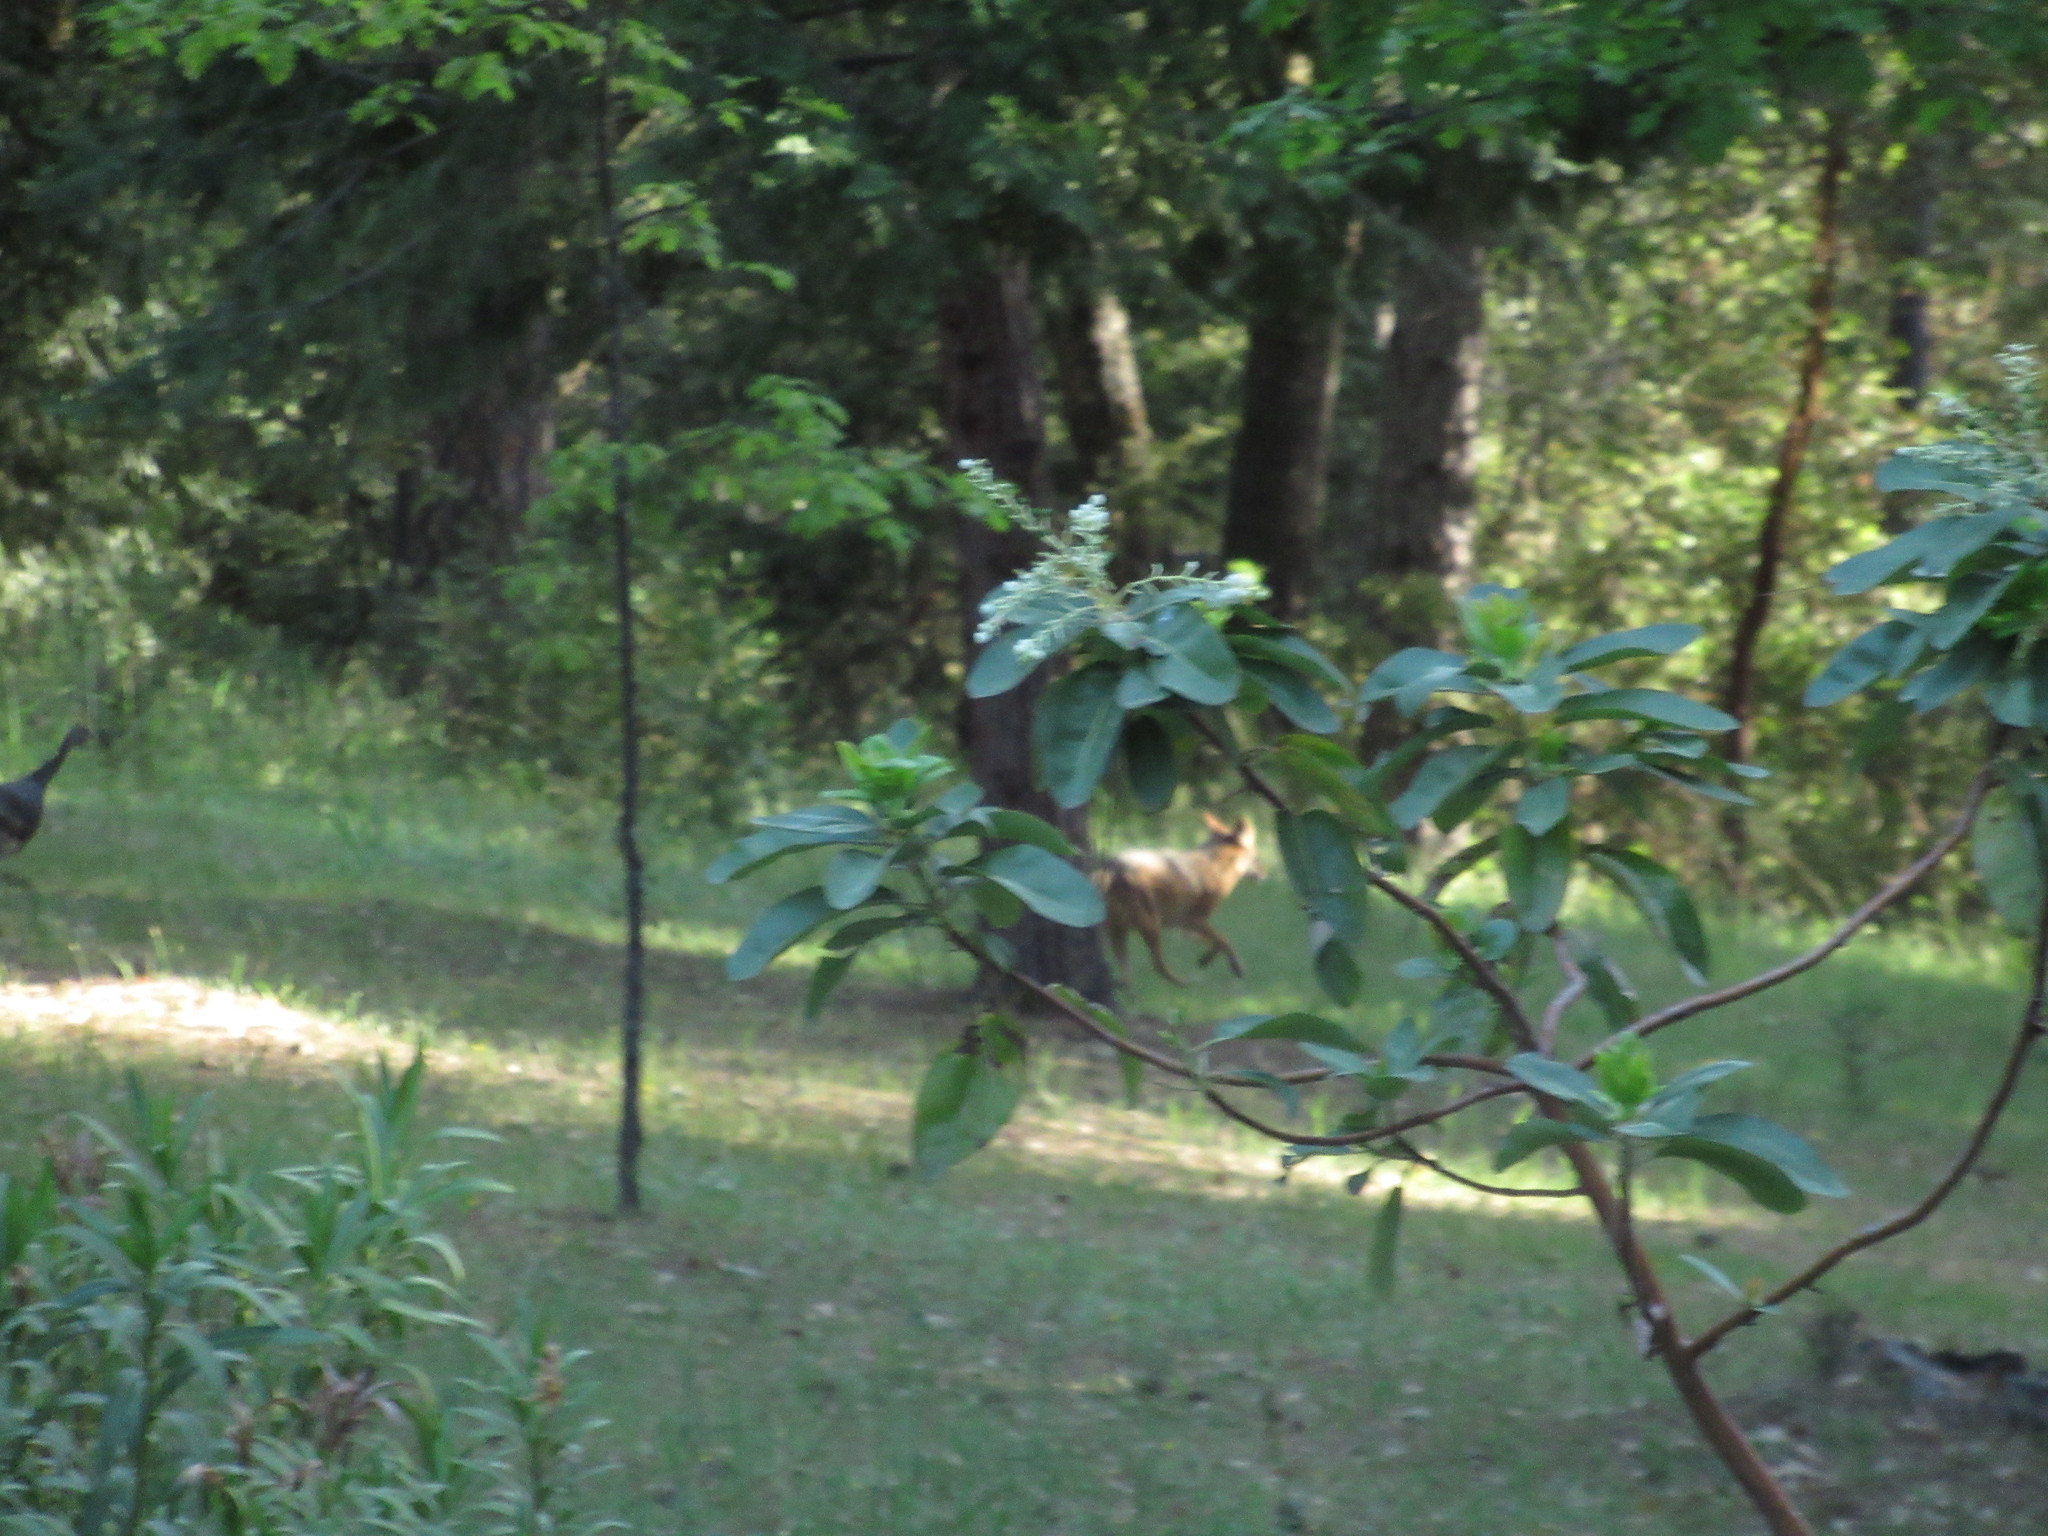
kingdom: Animalia
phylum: Chordata
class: Mammalia
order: Carnivora
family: Canidae
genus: Canis
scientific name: Canis latrans
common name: Coyote
